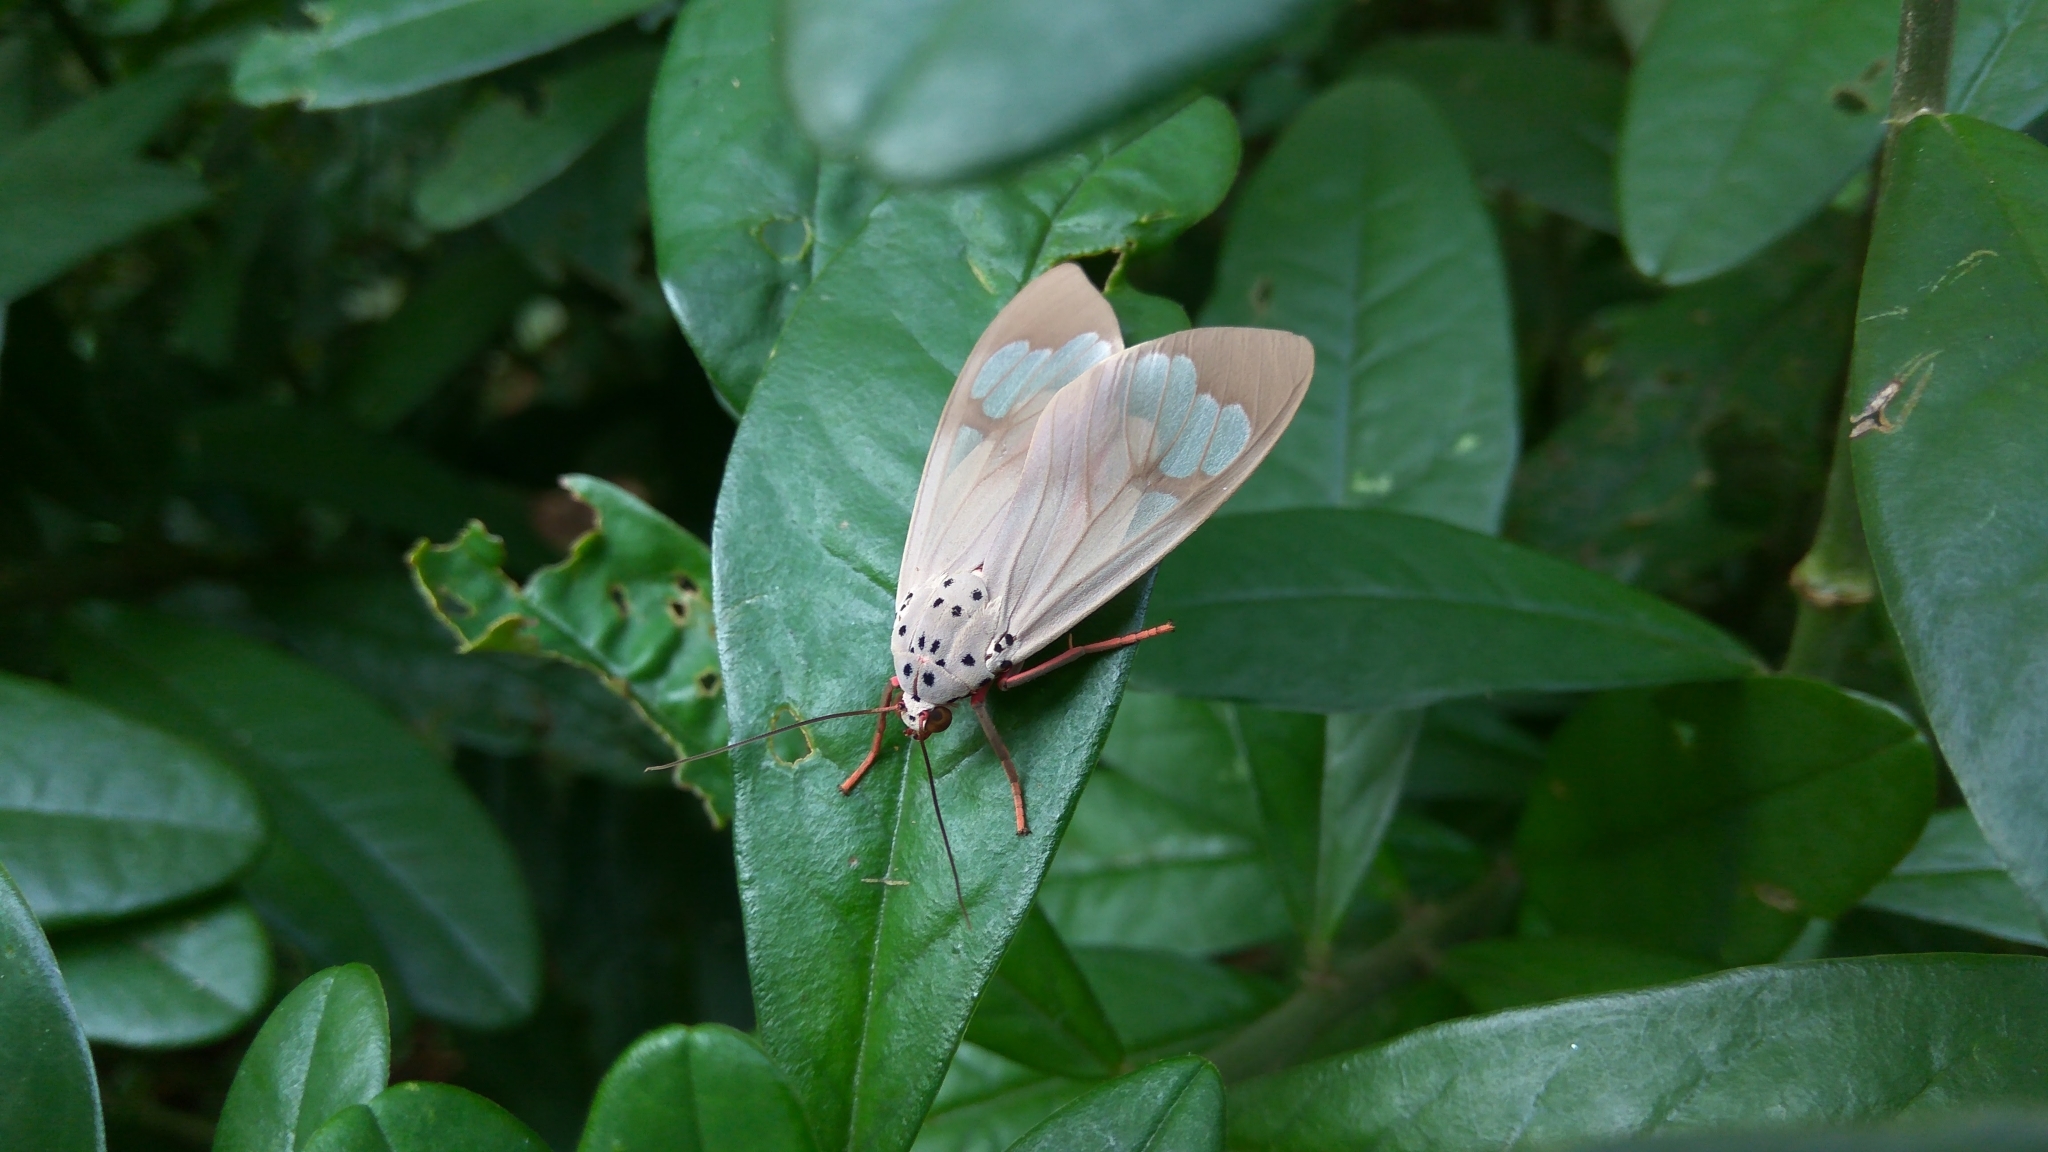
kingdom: Animalia
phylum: Arthropoda
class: Insecta
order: Lepidoptera
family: Erebidae
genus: Amerila
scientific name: Amerila astreus
